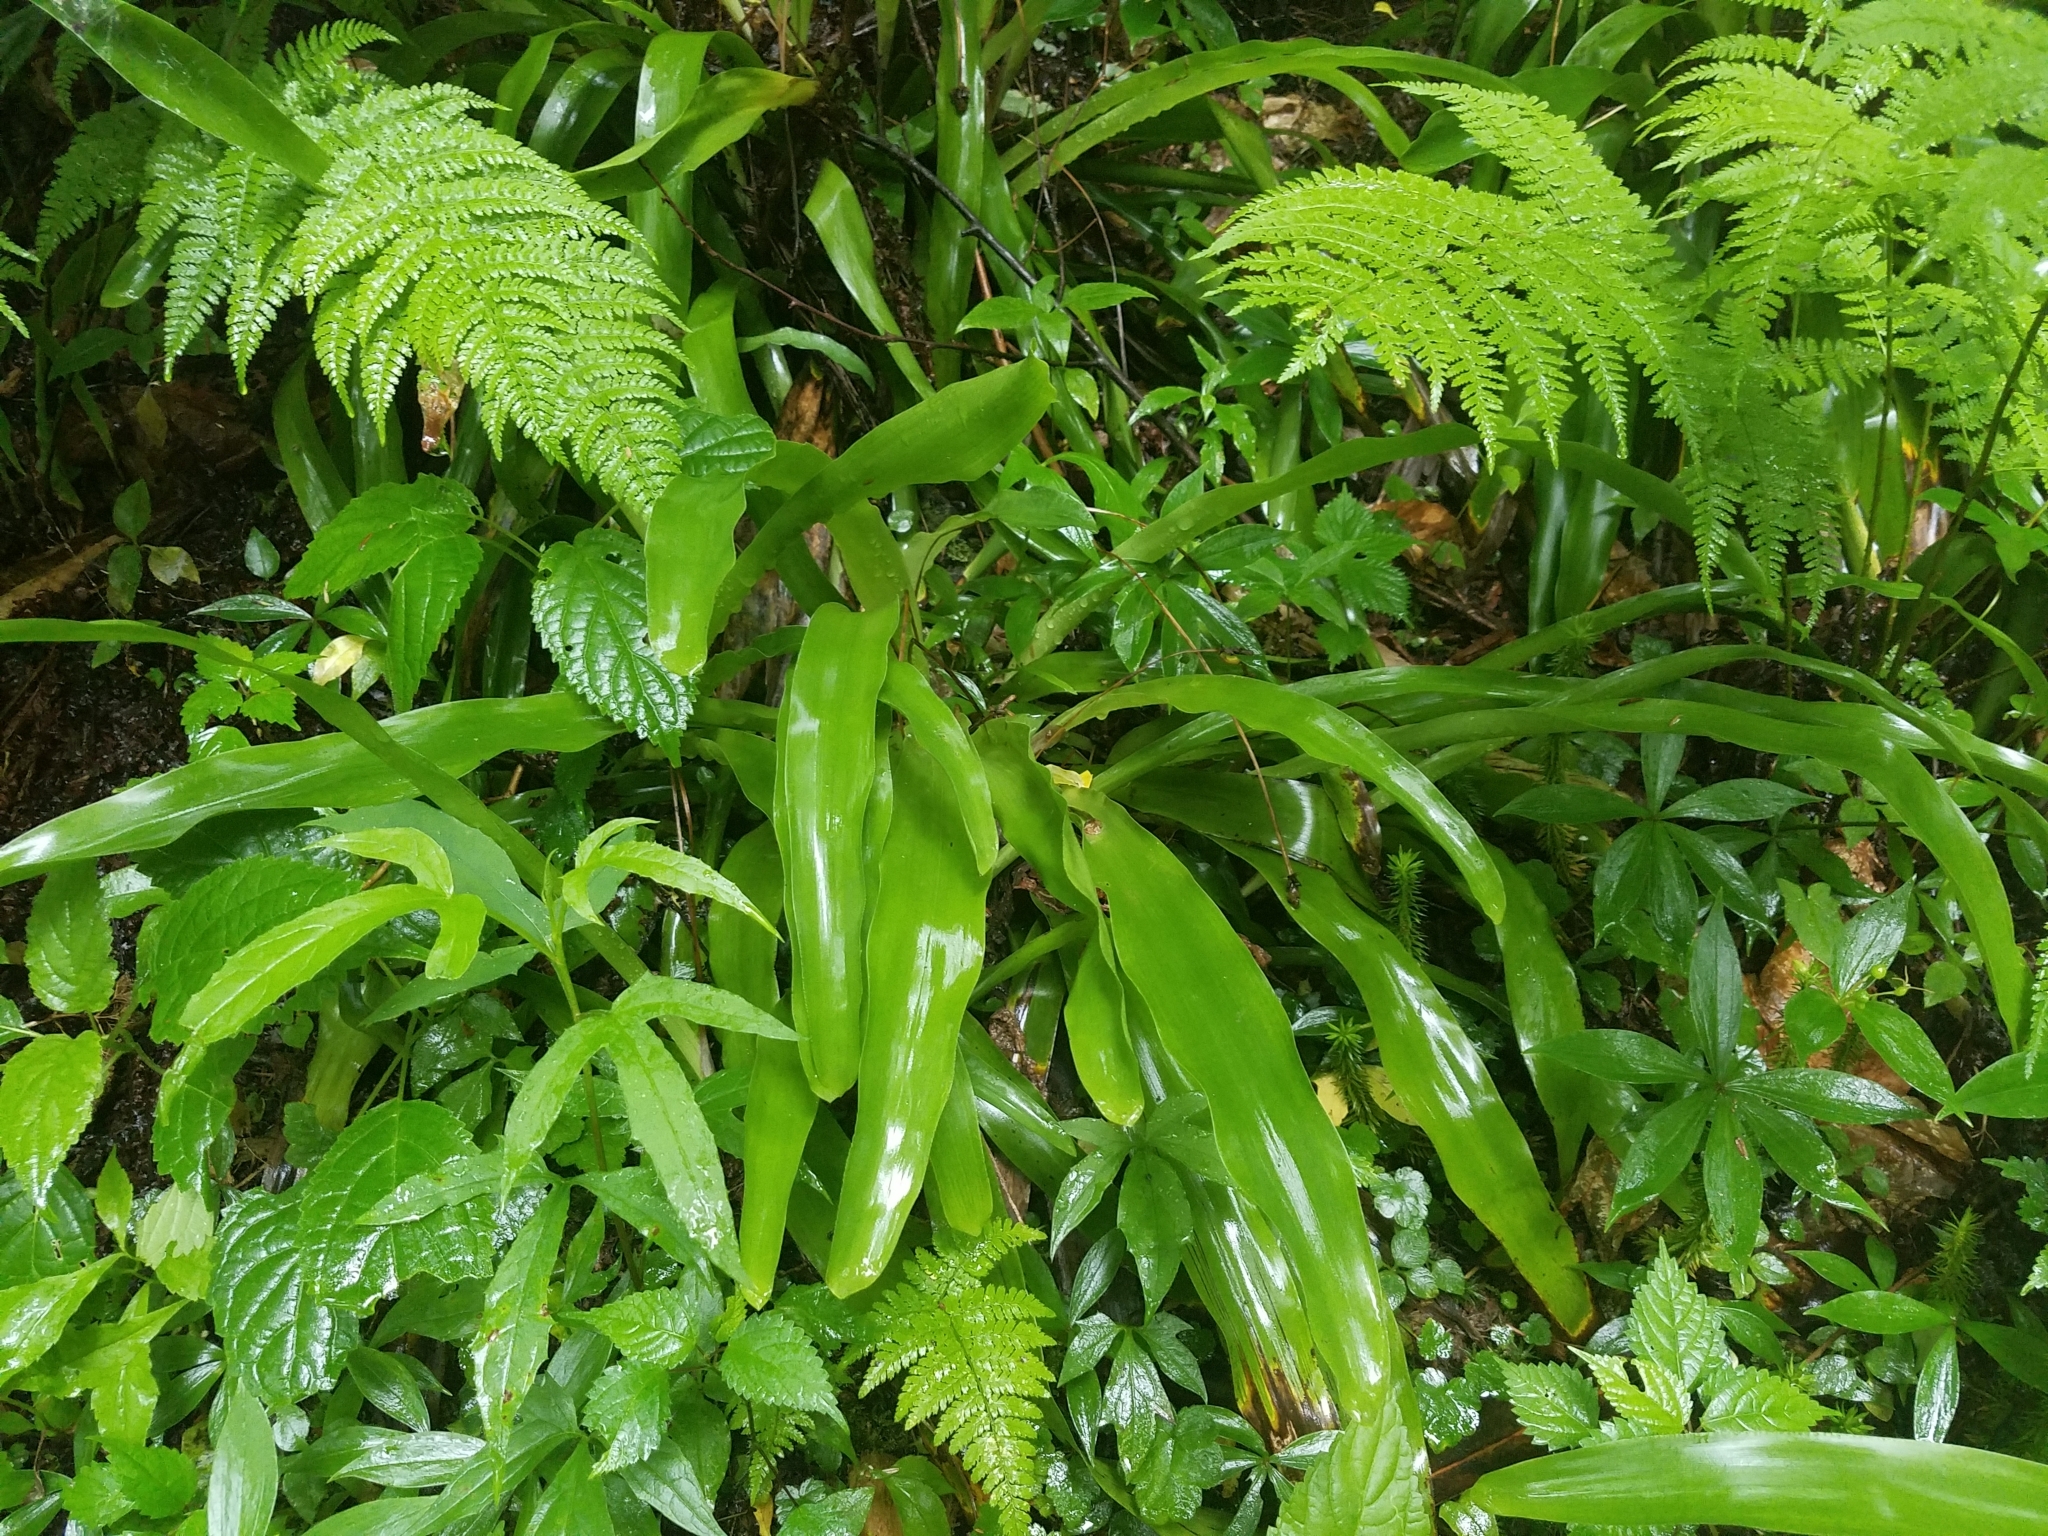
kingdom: Plantae
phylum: Tracheophyta
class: Liliopsida
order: Poales
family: Cyperaceae
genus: Carex
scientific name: Carex fraseriana
